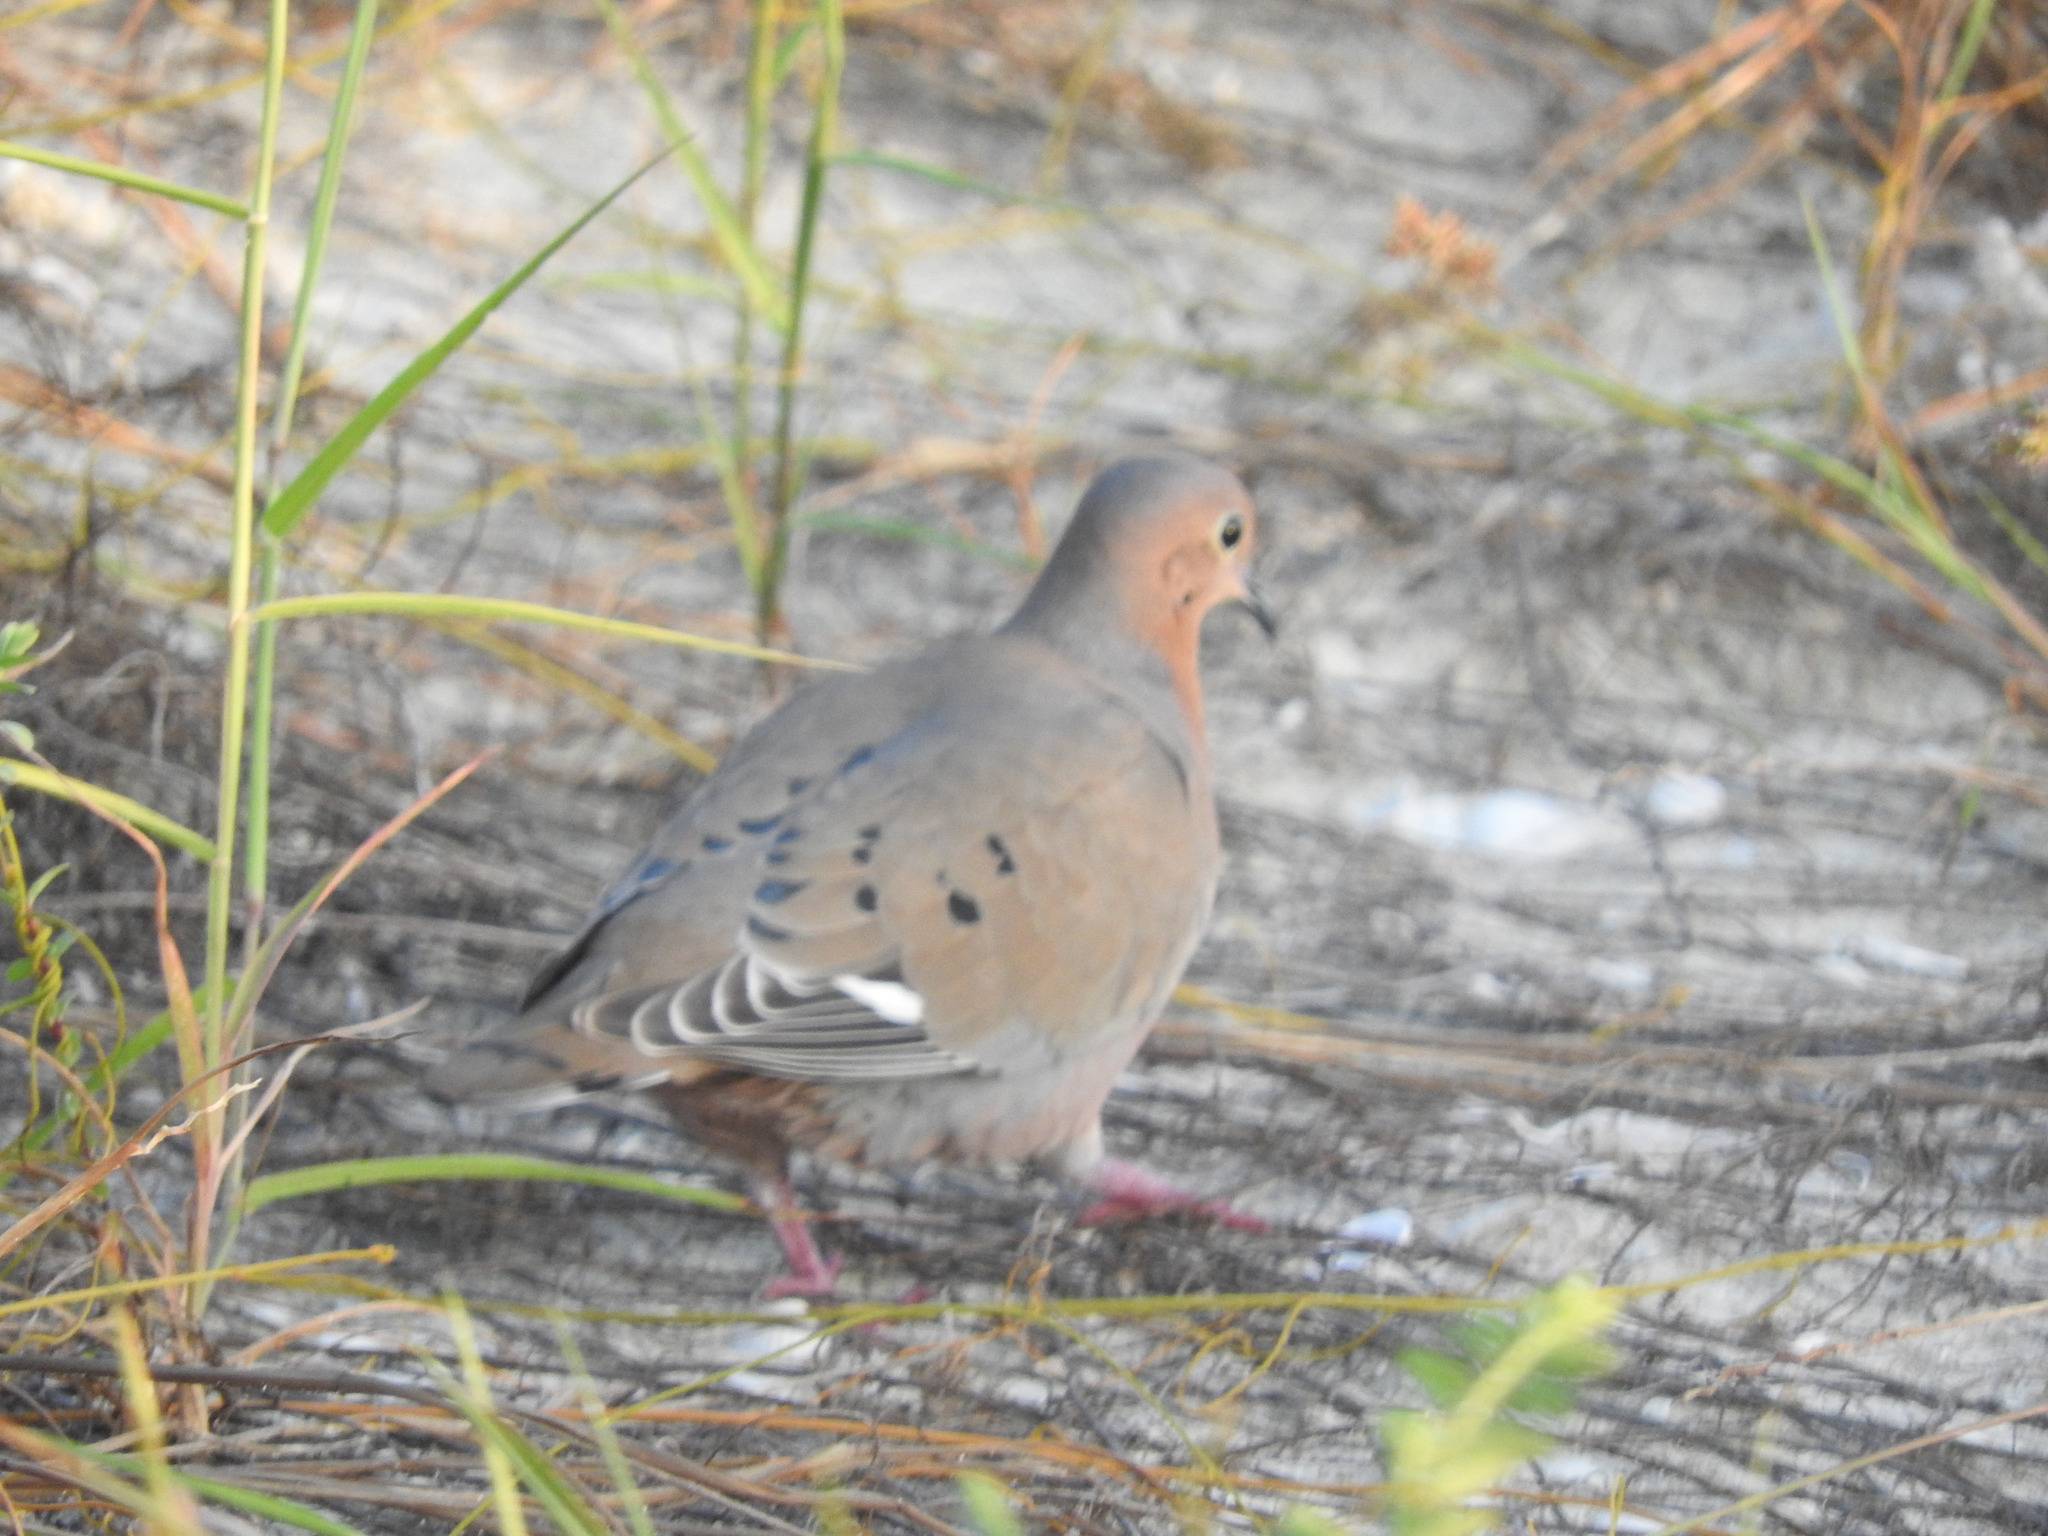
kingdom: Animalia
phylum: Chordata
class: Aves
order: Columbiformes
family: Columbidae
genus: Zenaida
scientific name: Zenaida aurita
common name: Zenaida dove
